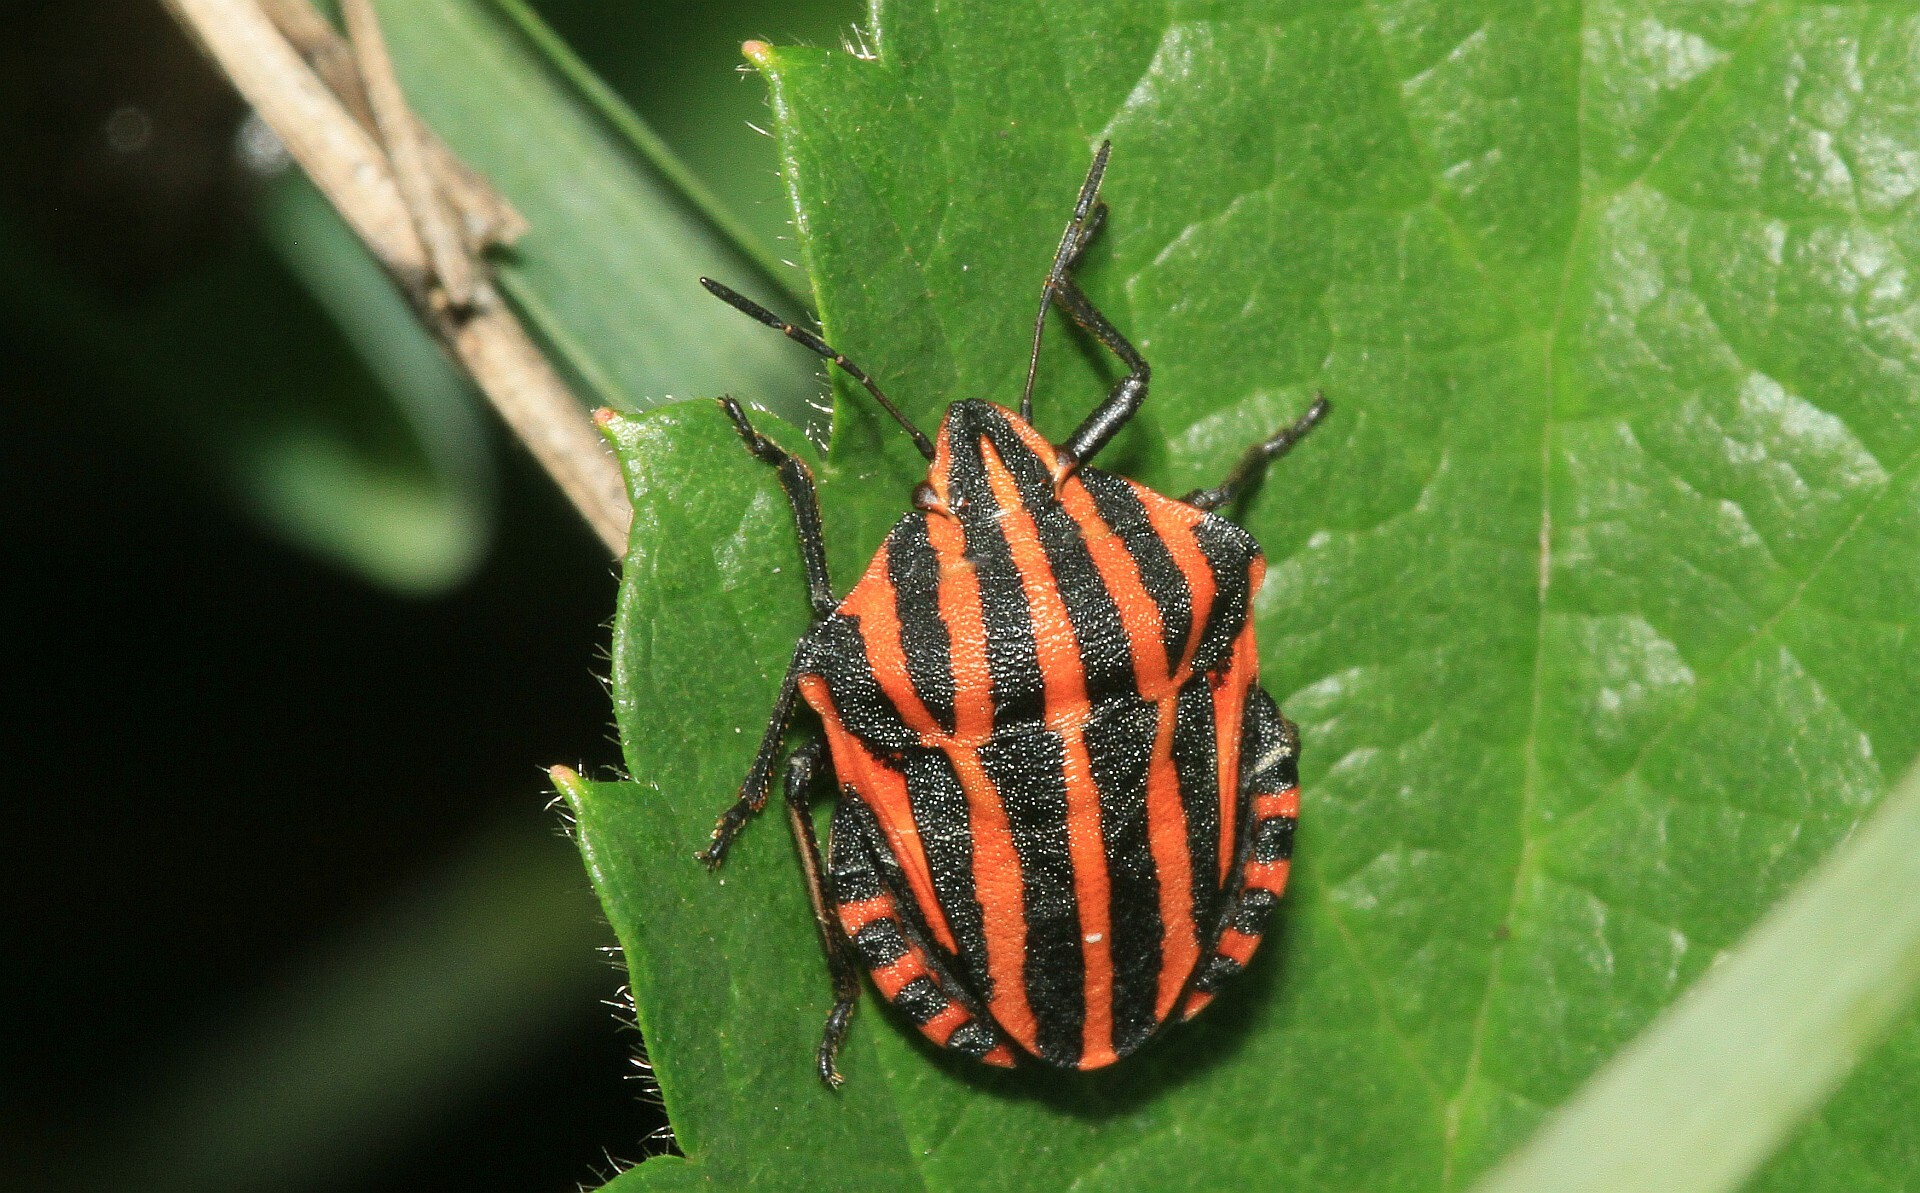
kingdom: Animalia
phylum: Arthropoda
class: Insecta
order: Hemiptera
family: Pentatomidae
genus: Graphosoma
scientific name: Graphosoma italicum
